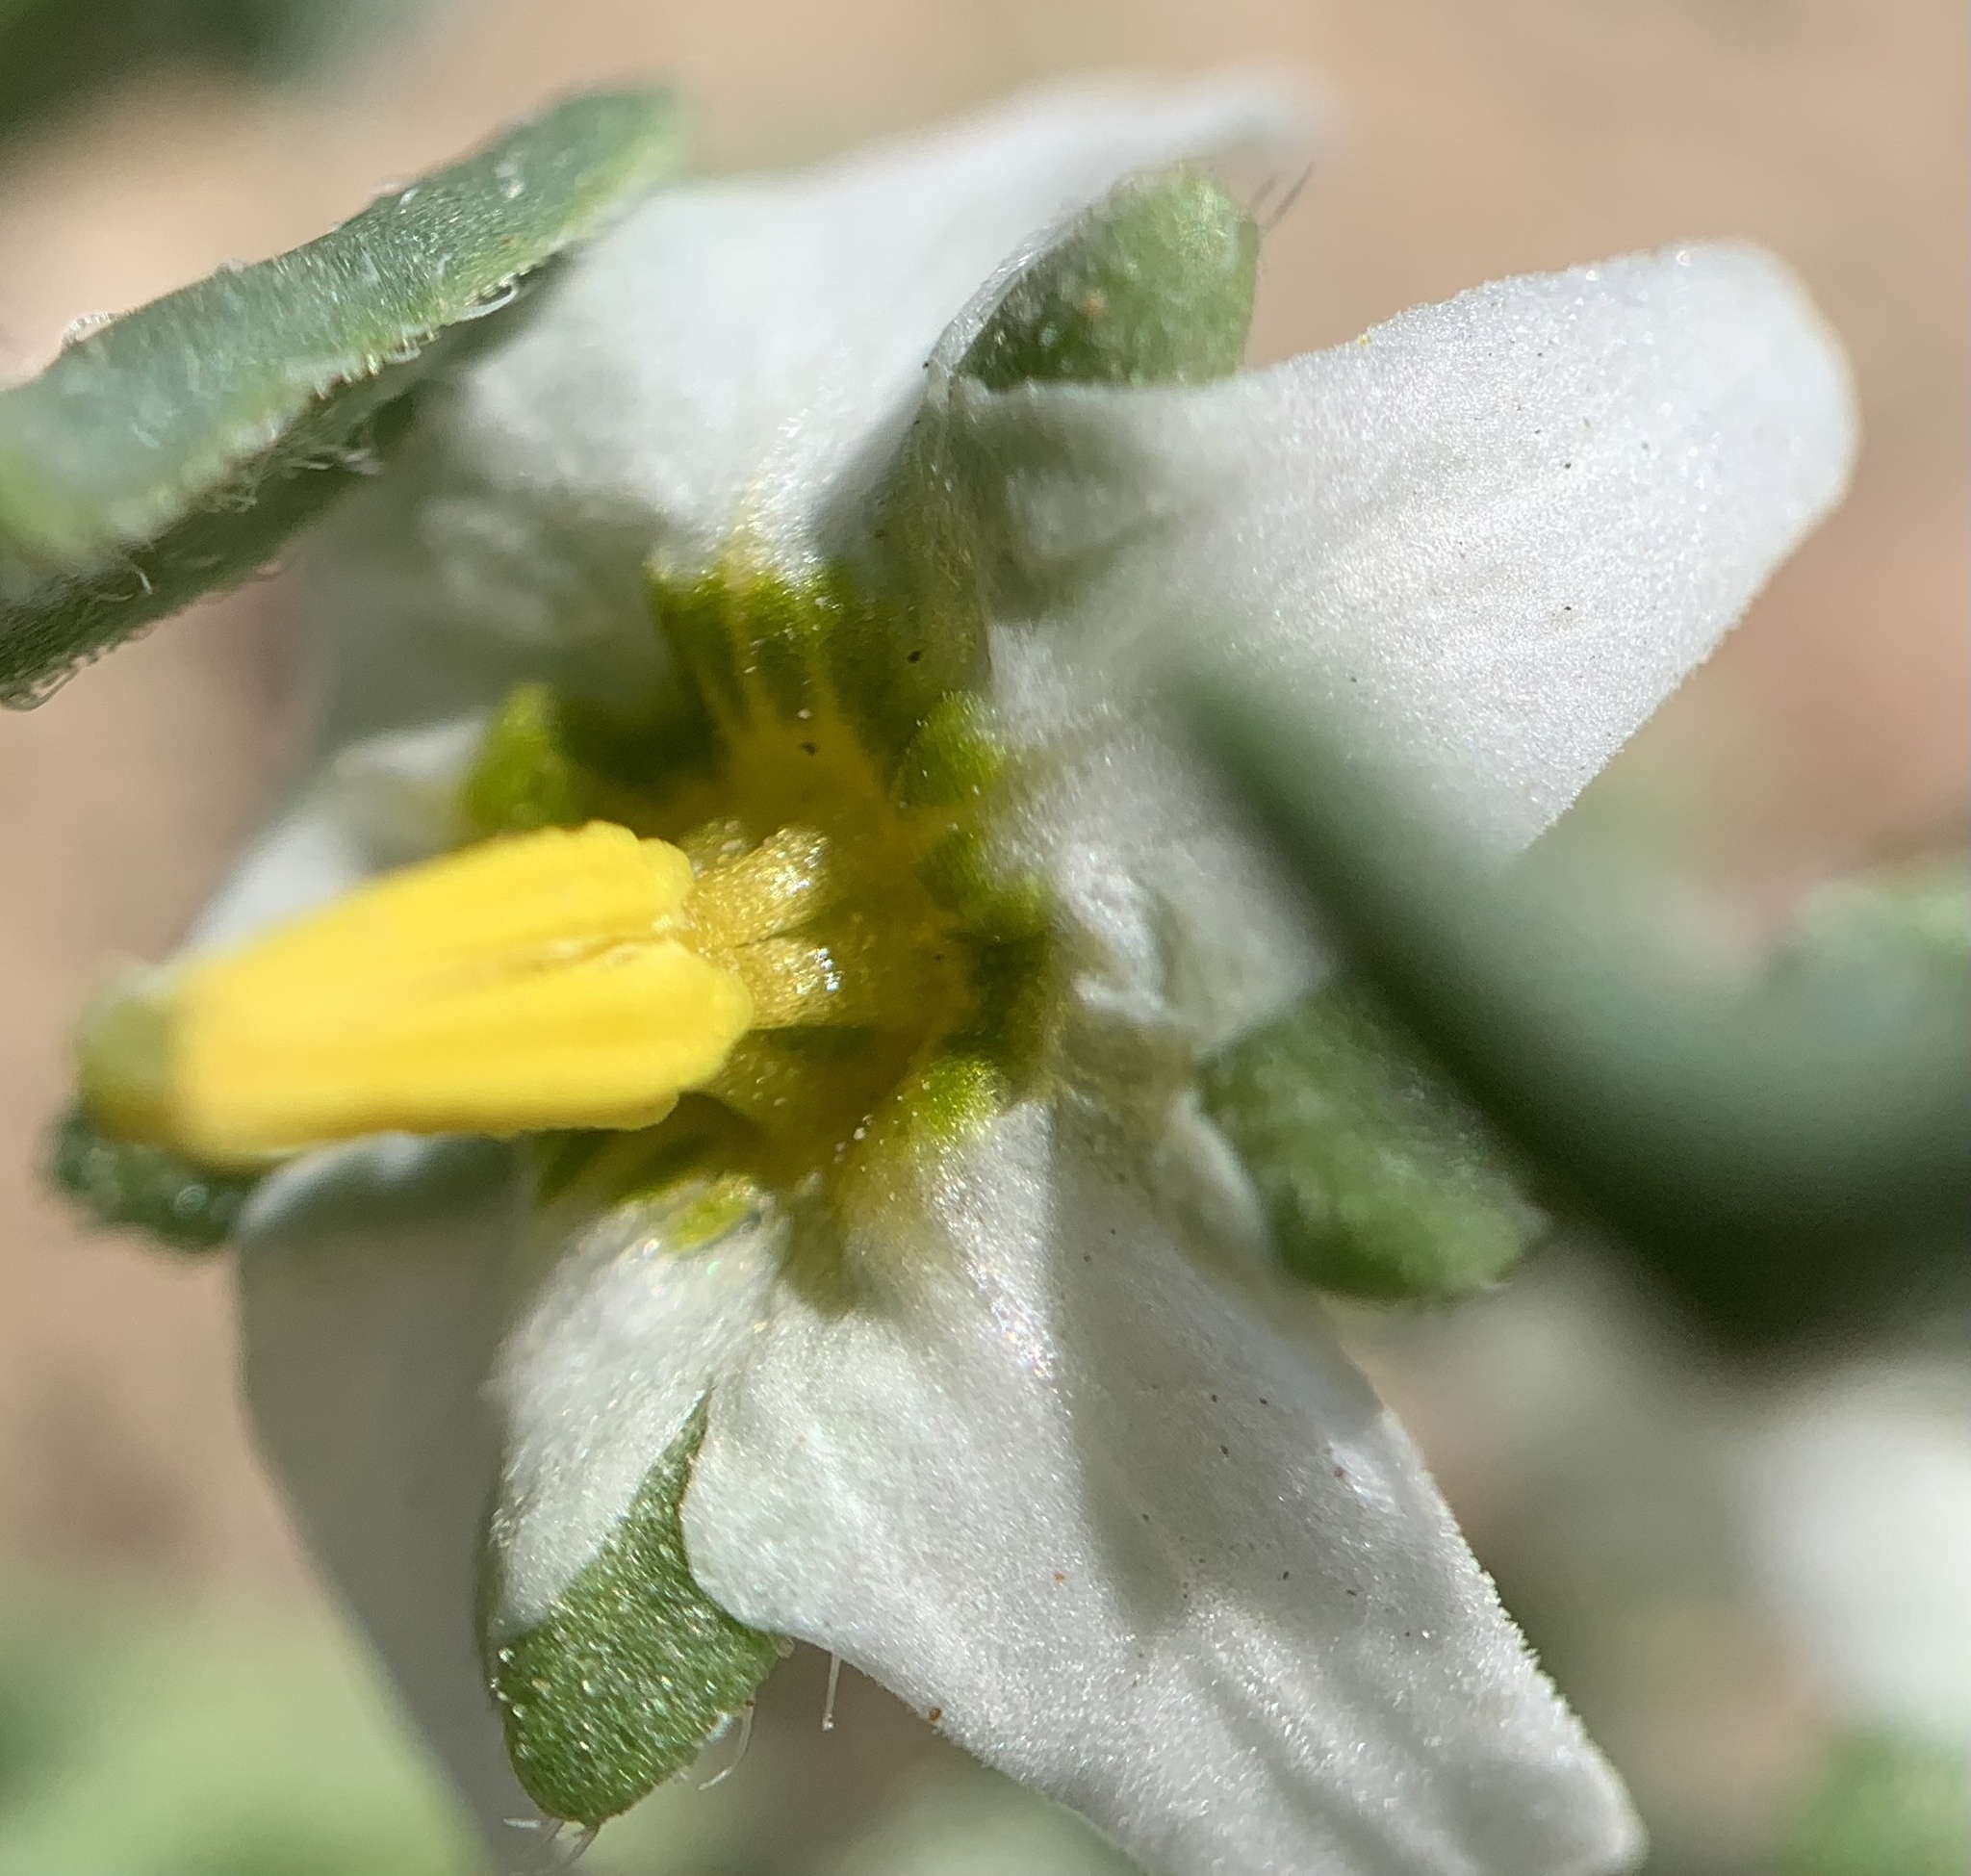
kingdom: Plantae
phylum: Tracheophyta
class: Magnoliopsida
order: Solanales
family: Solanaceae
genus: Solanum
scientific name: Solanum triflorum
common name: Small nightshade
